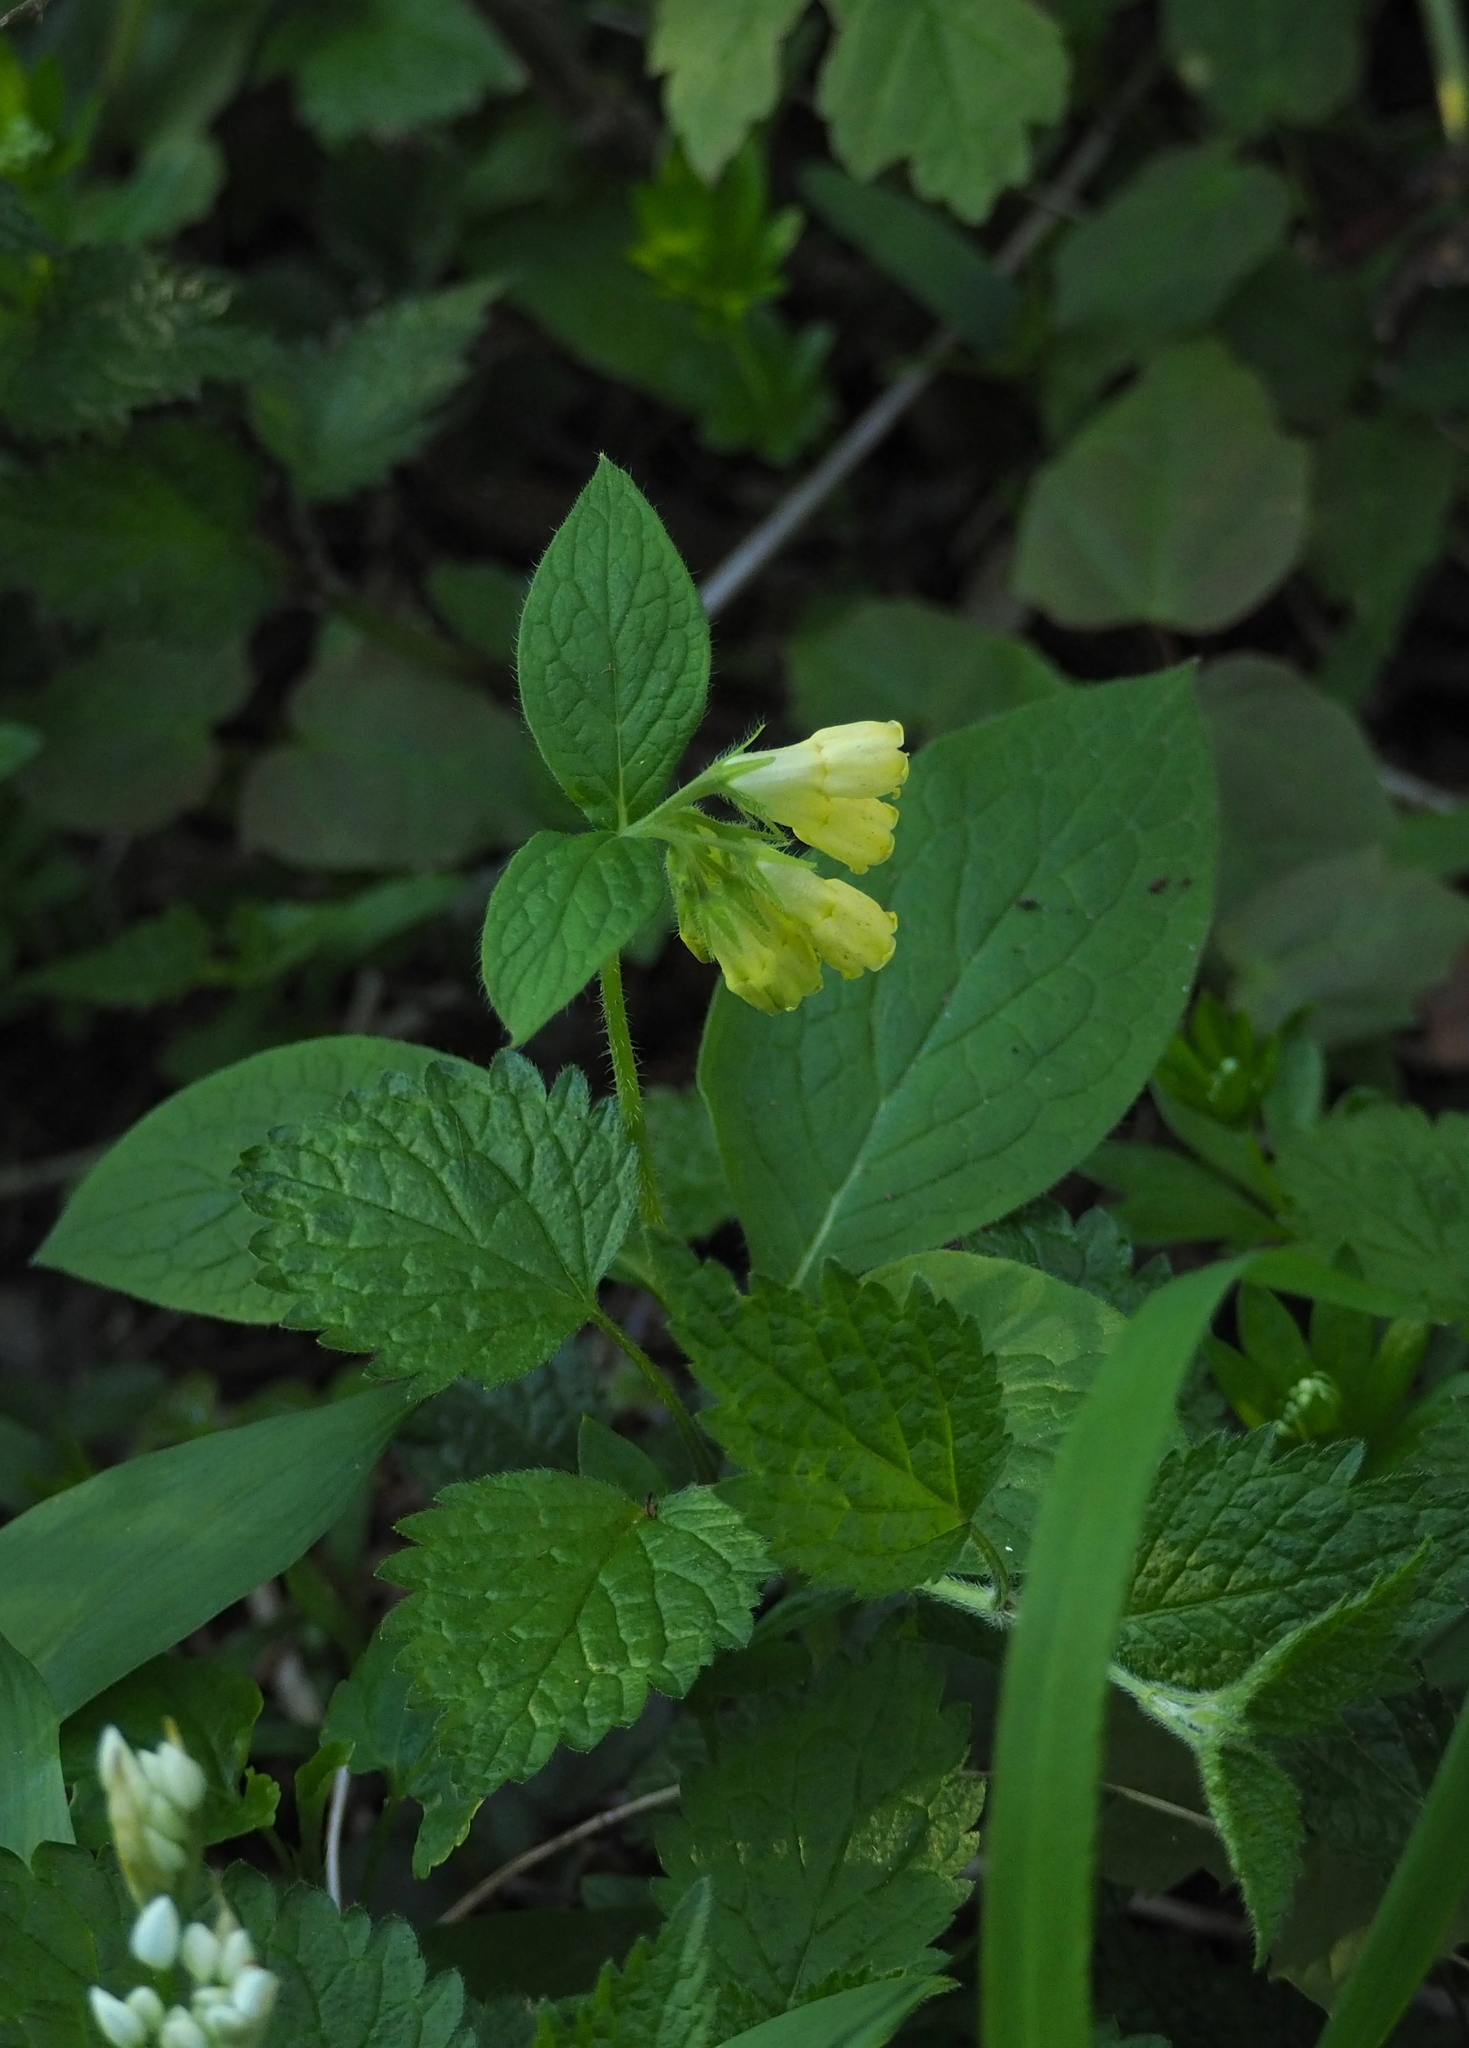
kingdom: Plantae
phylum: Tracheophyta
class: Magnoliopsida
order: Boraginales
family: Boraginaceae
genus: Symphytum
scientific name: Symphytum tuberosum
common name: Tuberous comfrey
